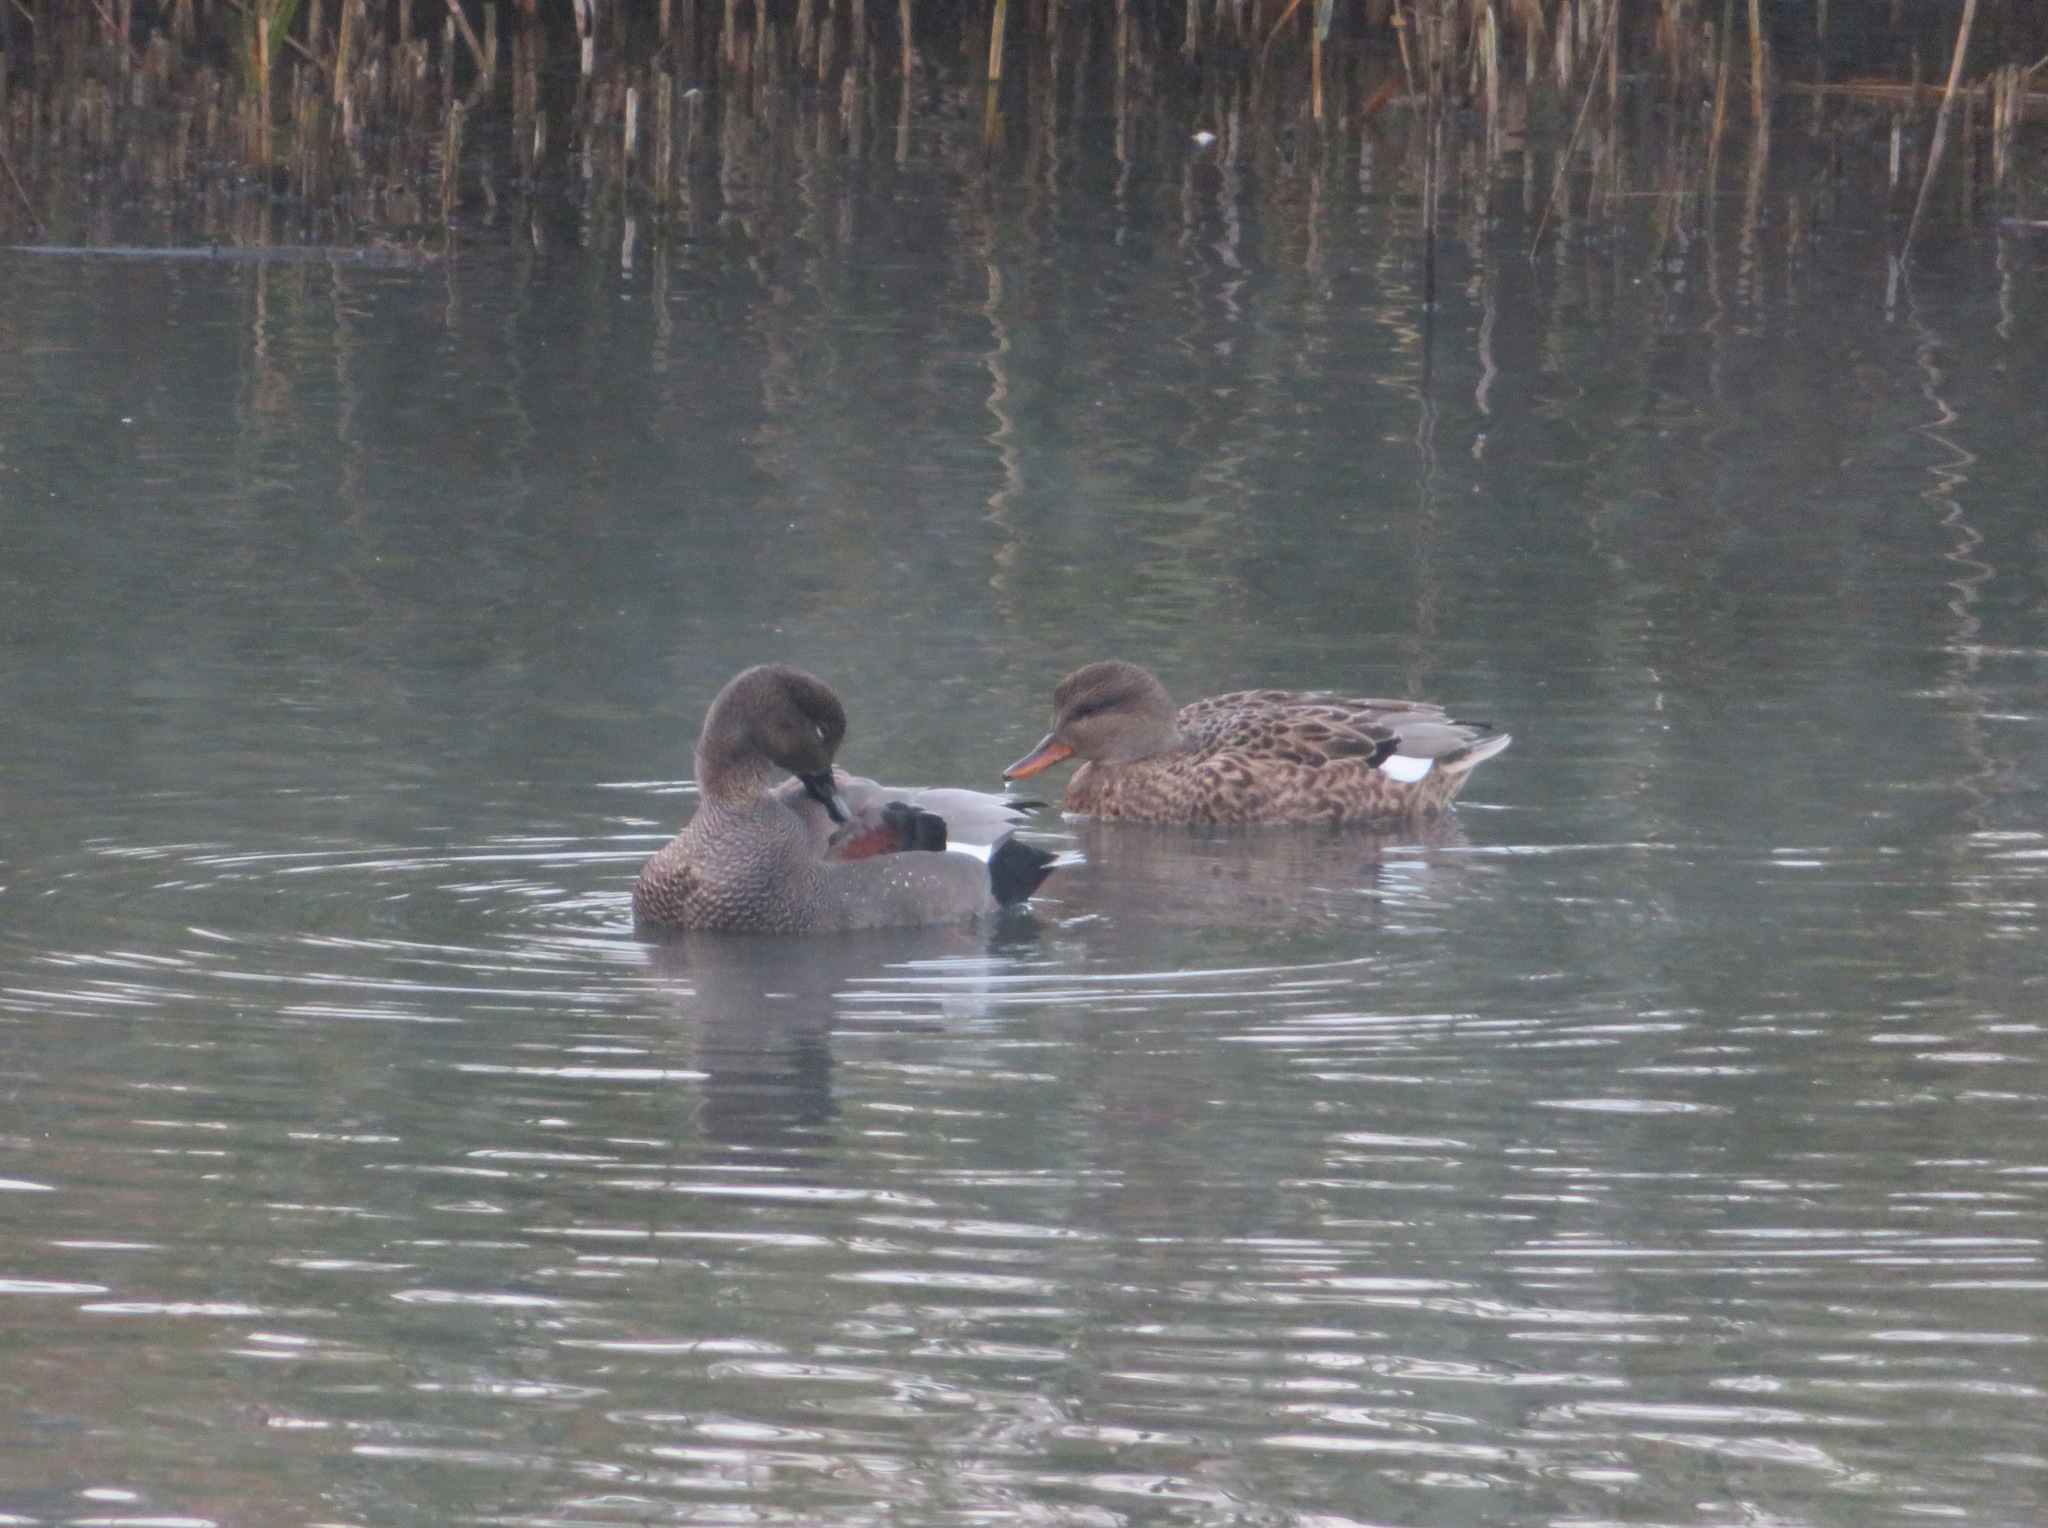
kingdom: Animalia
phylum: Chordata
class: Aves
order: Anseriformes
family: Anatidae
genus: Mareca
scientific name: Mareca strepera
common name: Gadwall
